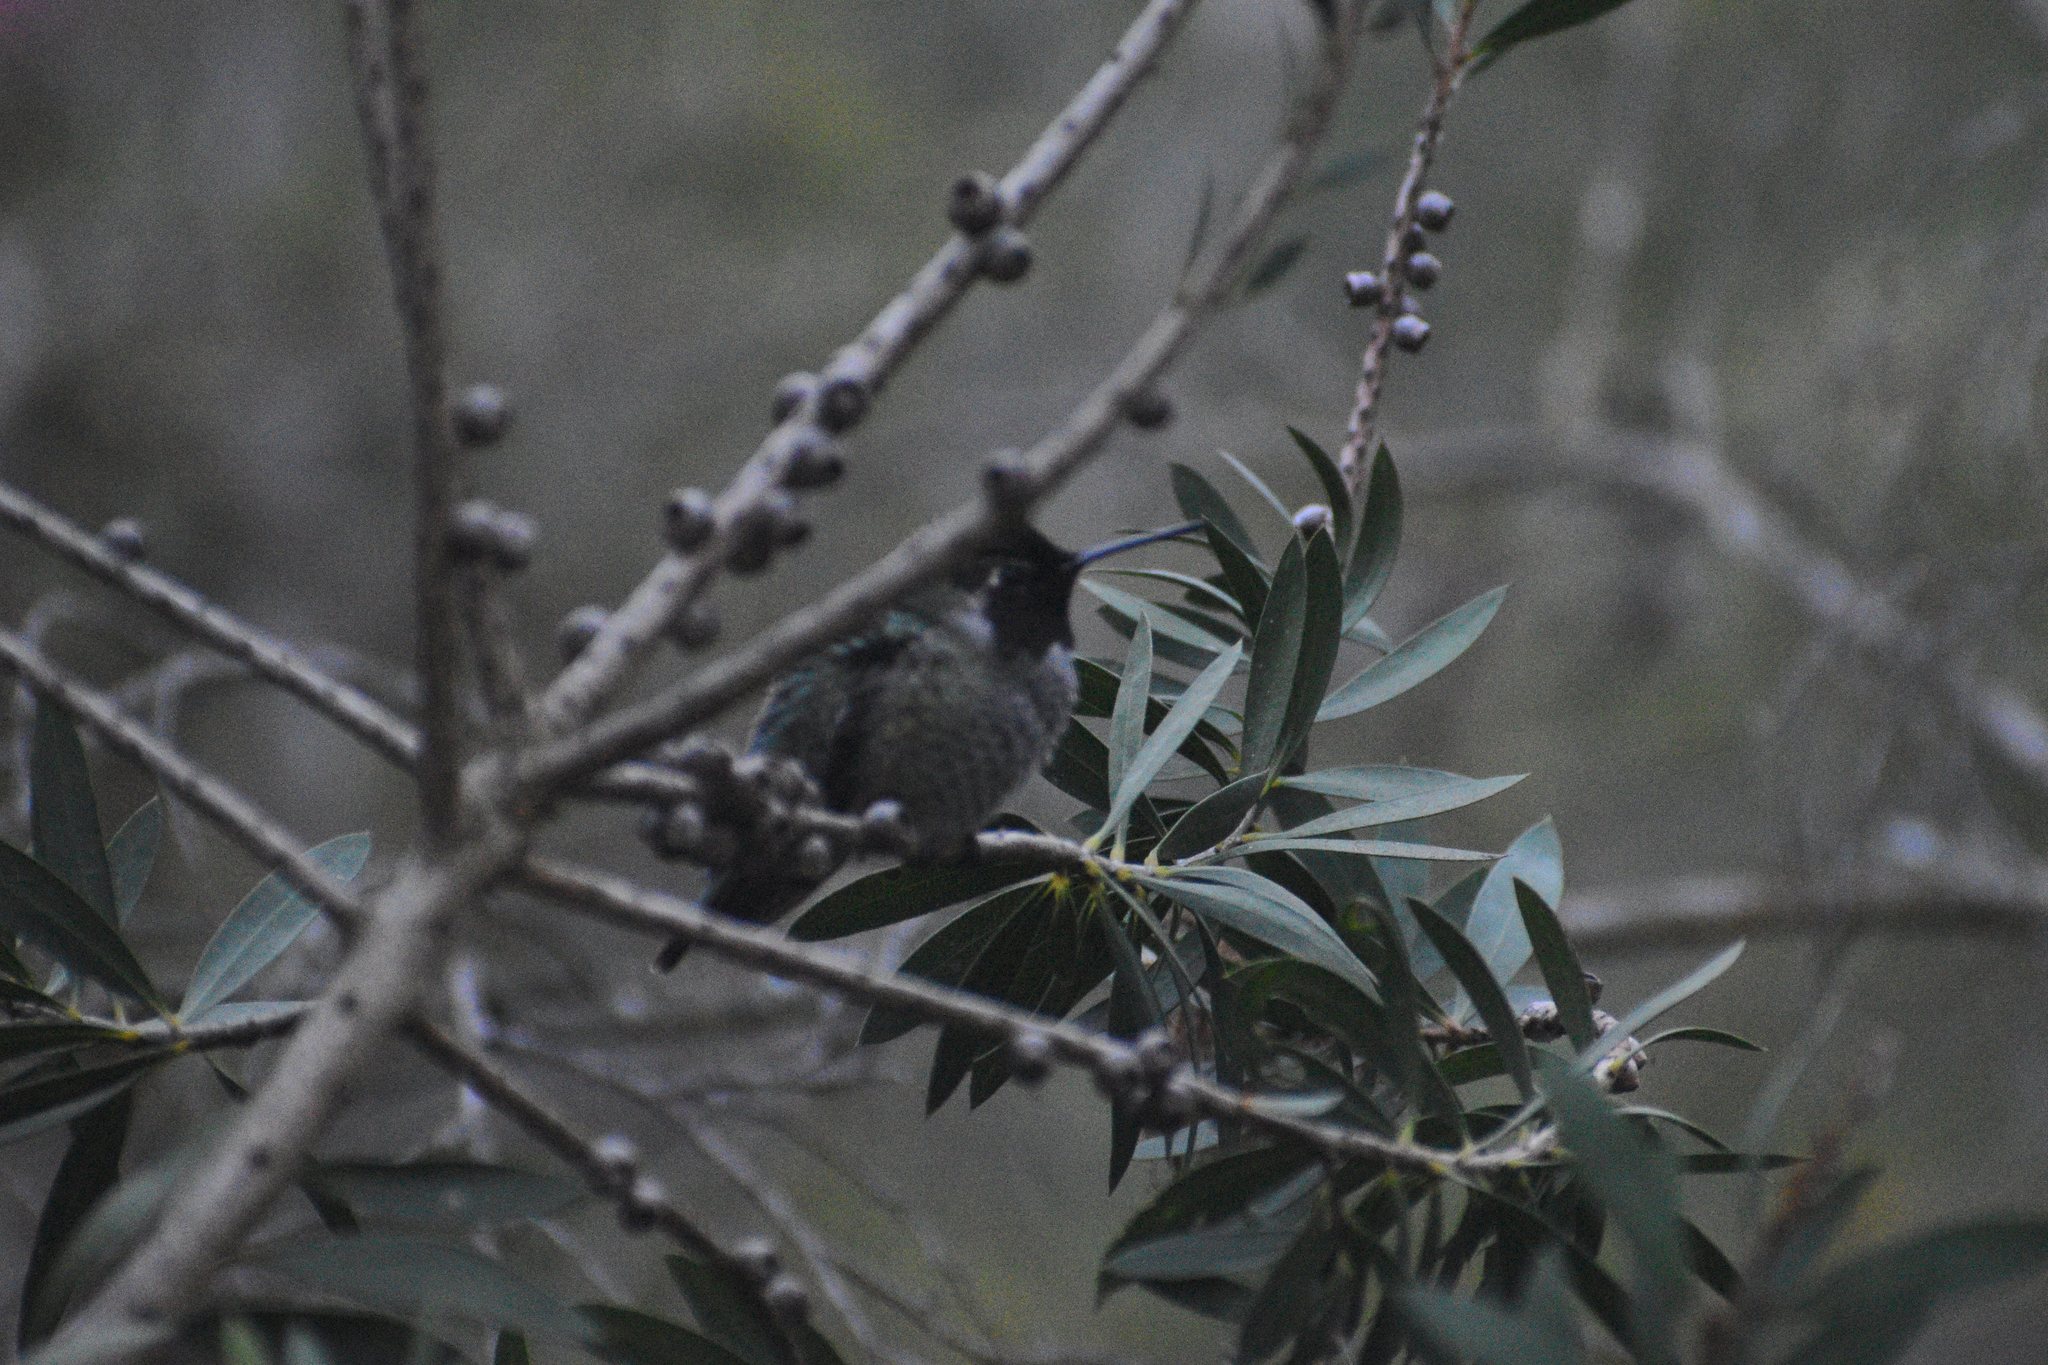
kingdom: Animalia
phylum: Chordata
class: Aves
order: Apodiformes
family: Trochilidae
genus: Calypte
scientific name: Calypte anna
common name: Anna's hummingbird
